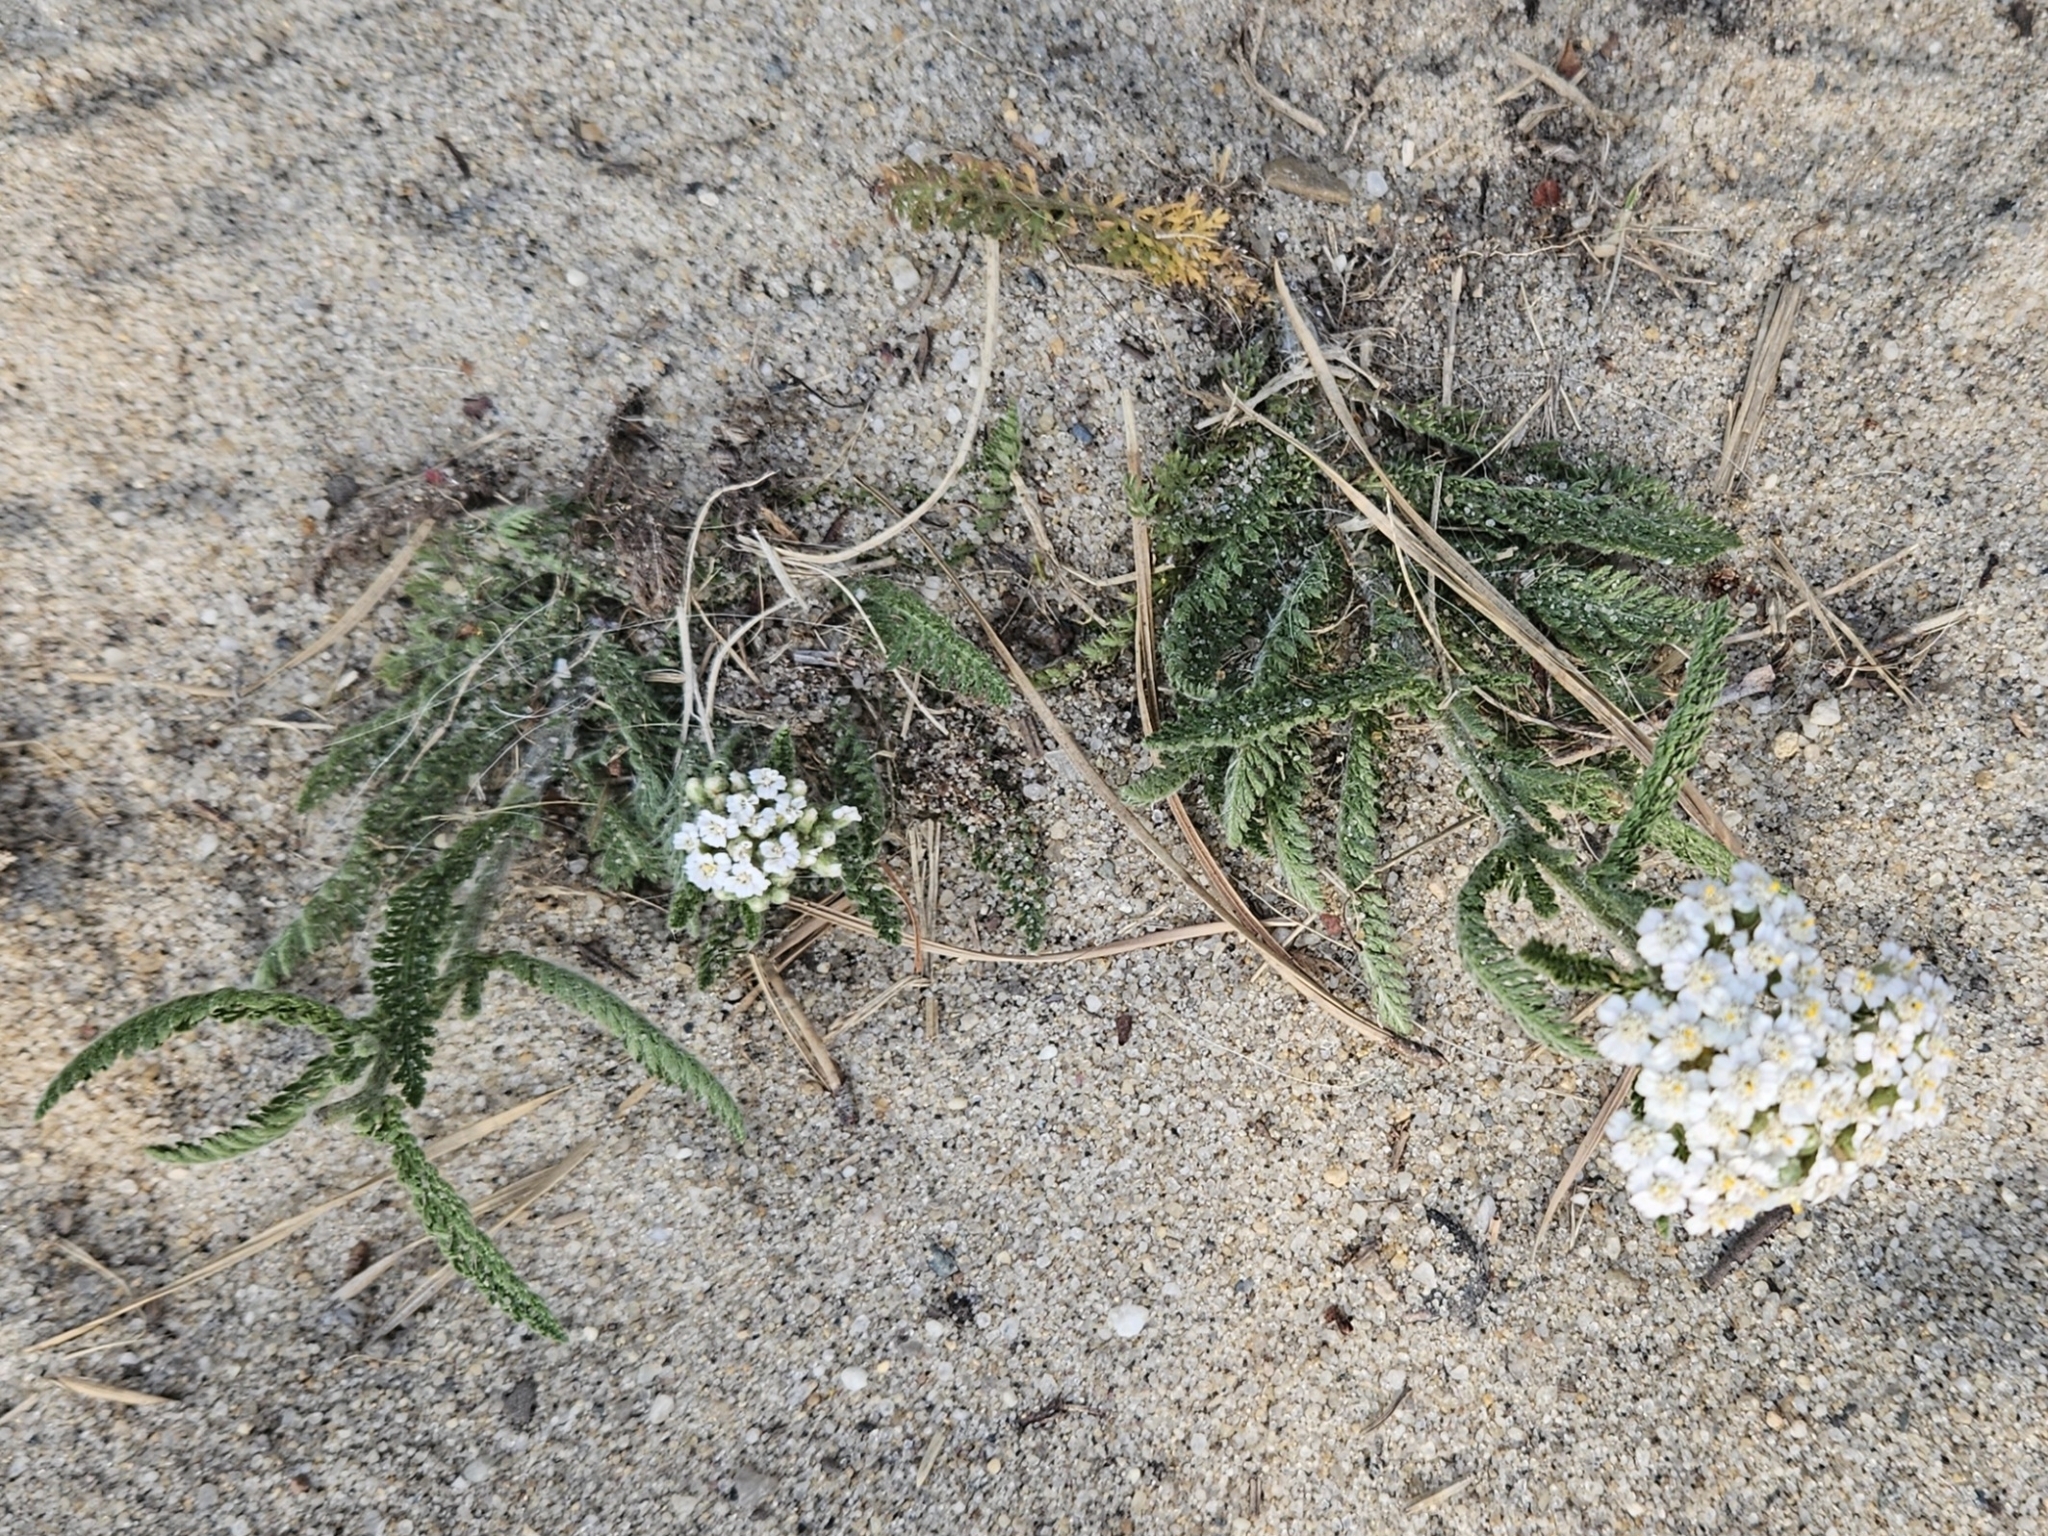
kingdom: Plantae
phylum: Tracheophyta
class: Magnoliopsida
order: Asterales
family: Asteraceae
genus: Achillea
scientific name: Achillea millefolium
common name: Yarrow
